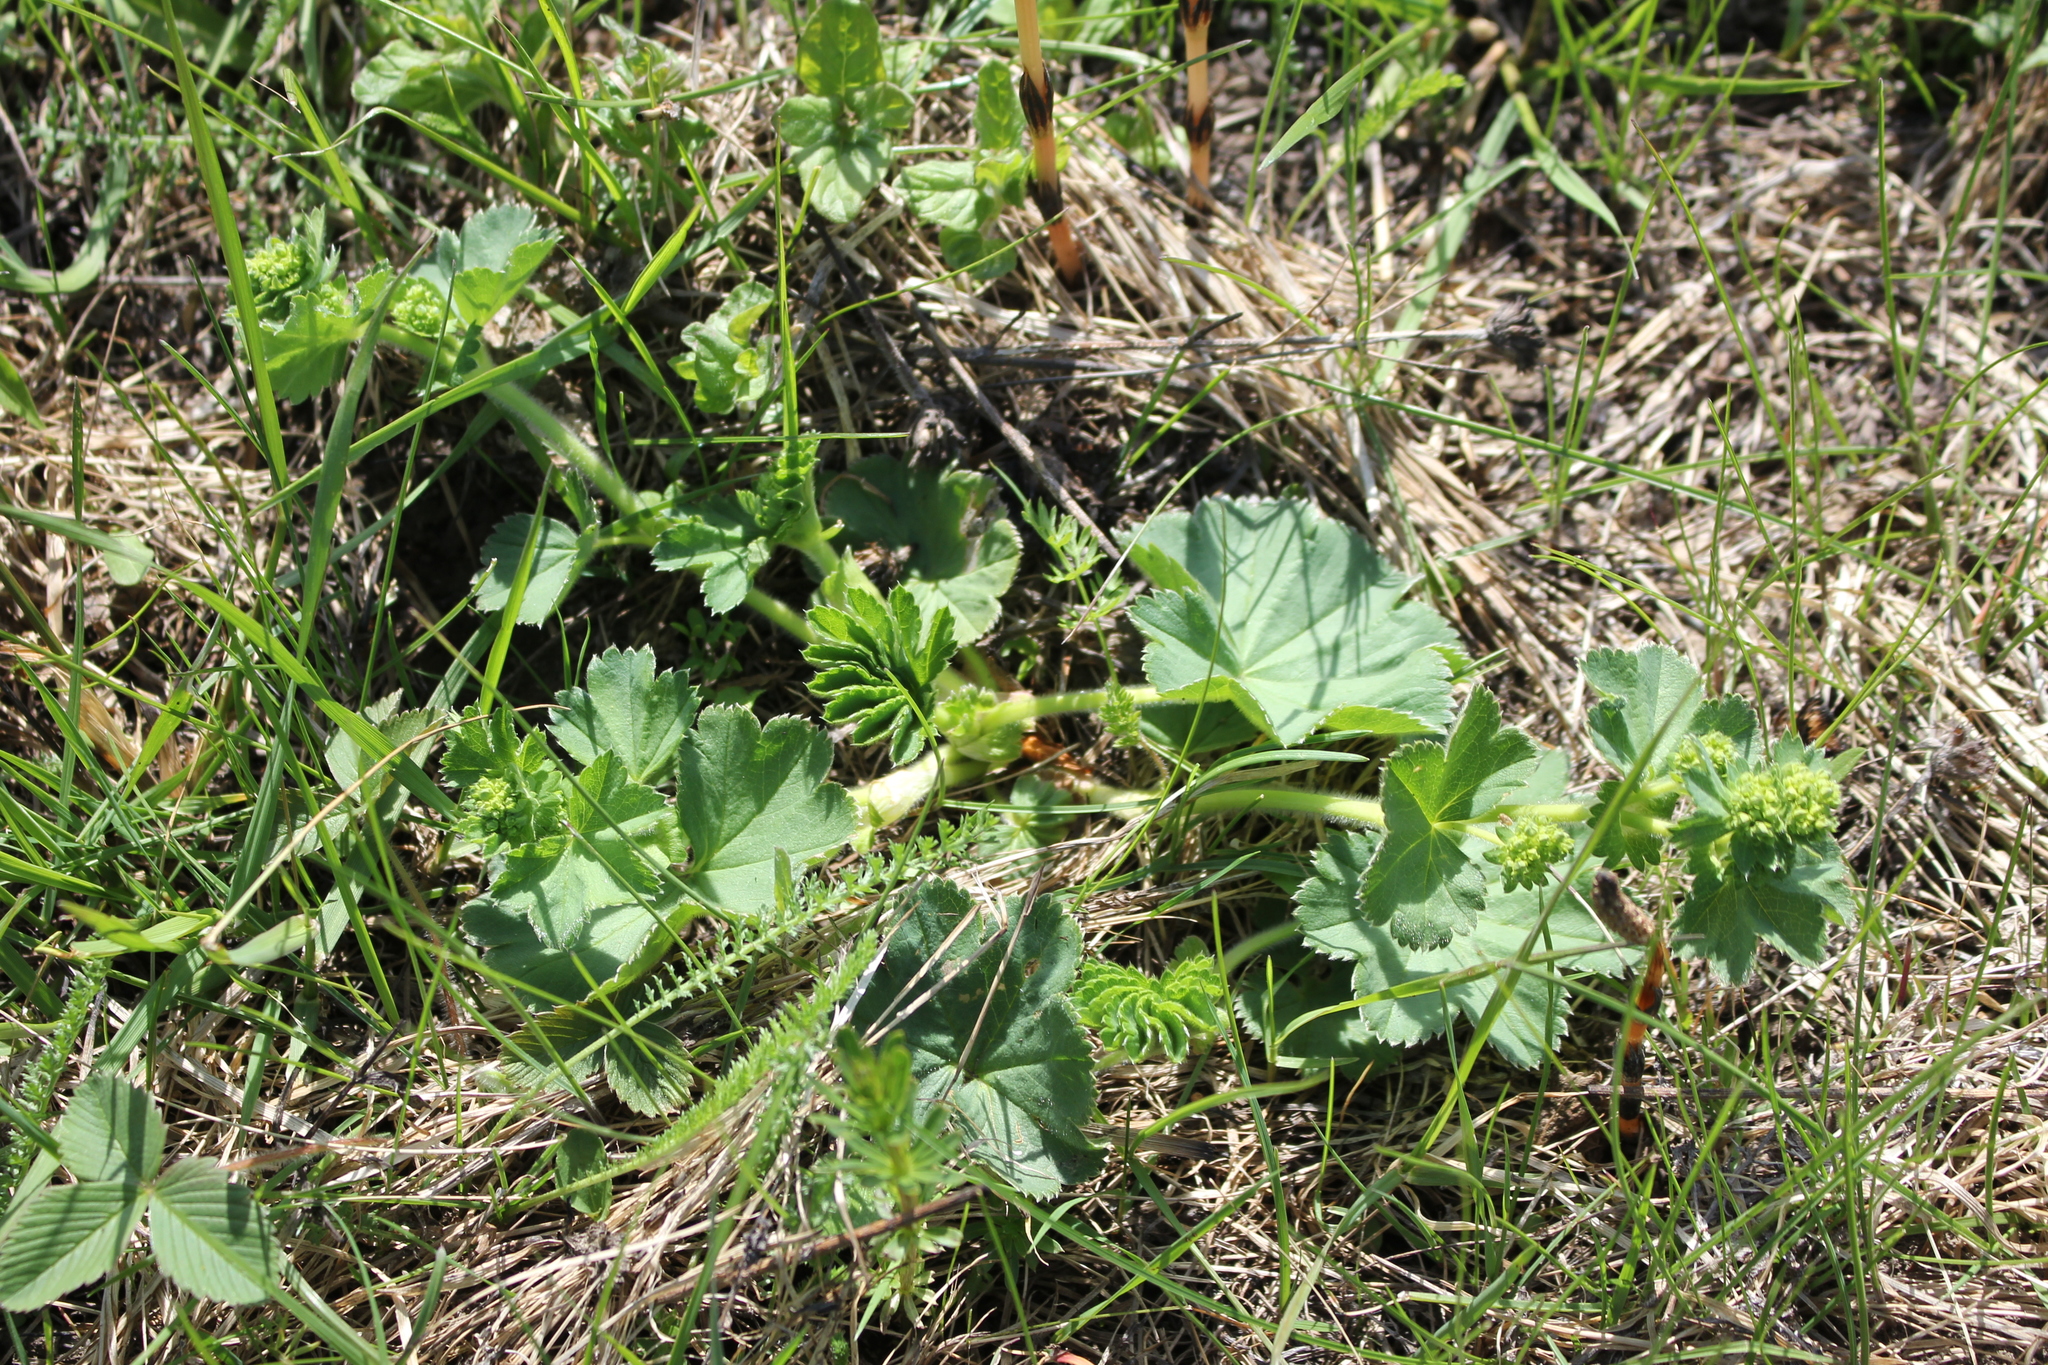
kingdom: Plantae
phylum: Tracheophyta
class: Magnoliopsida
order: Rosales
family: Rosaceae
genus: Alchemilla
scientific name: Alchemilla propinqua
